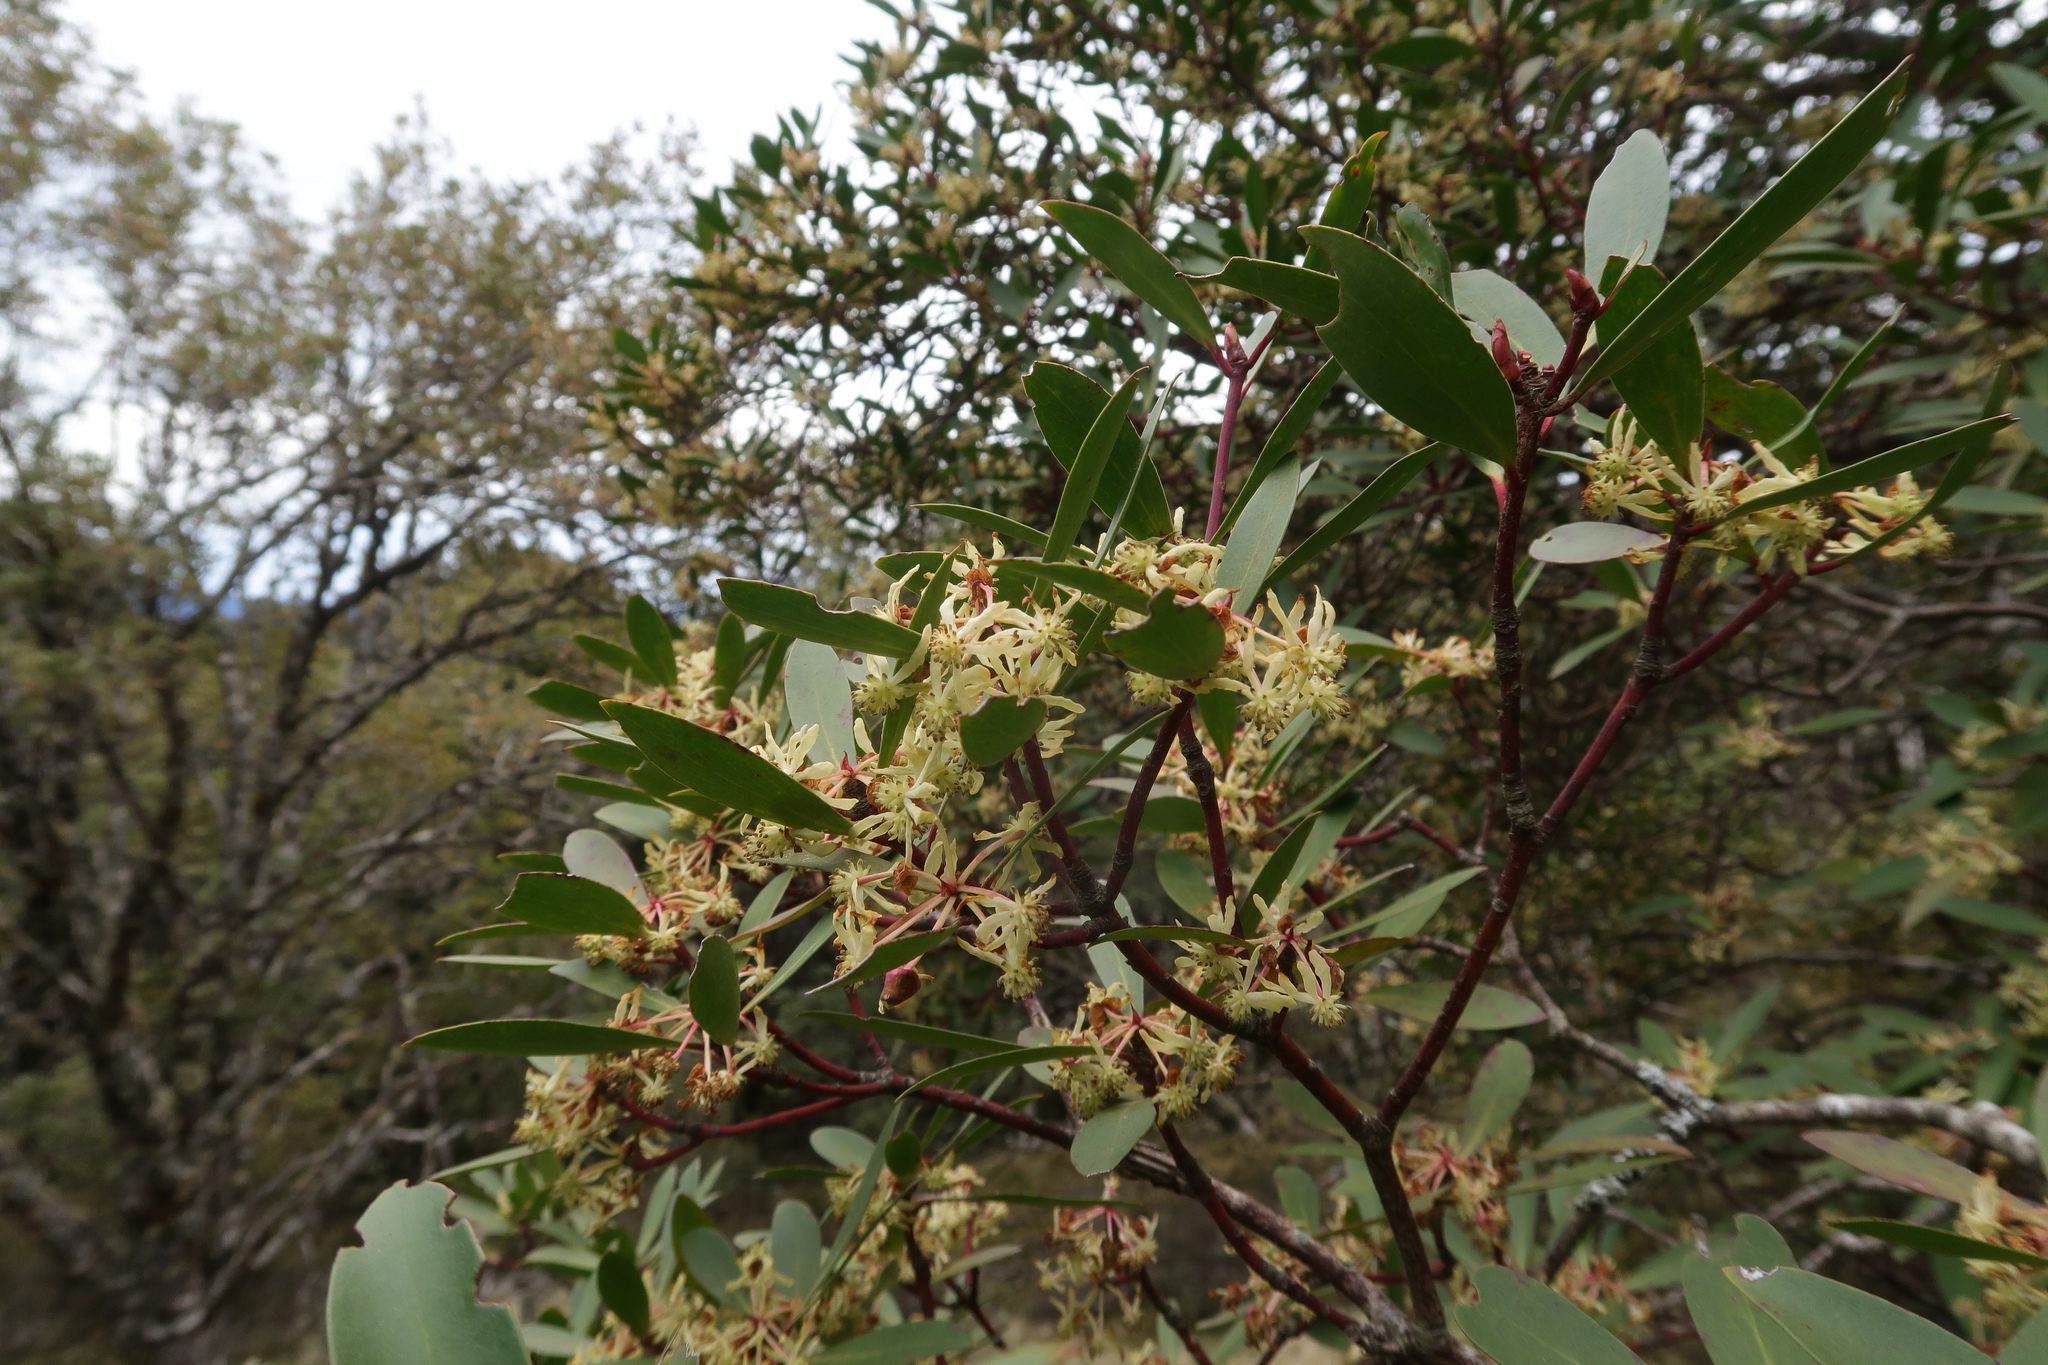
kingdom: Plantae
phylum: Tracheophyta
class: Magnoliopsida
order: Canellales
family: Winteraceae
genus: Drimys
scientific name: Drimys aromatica
